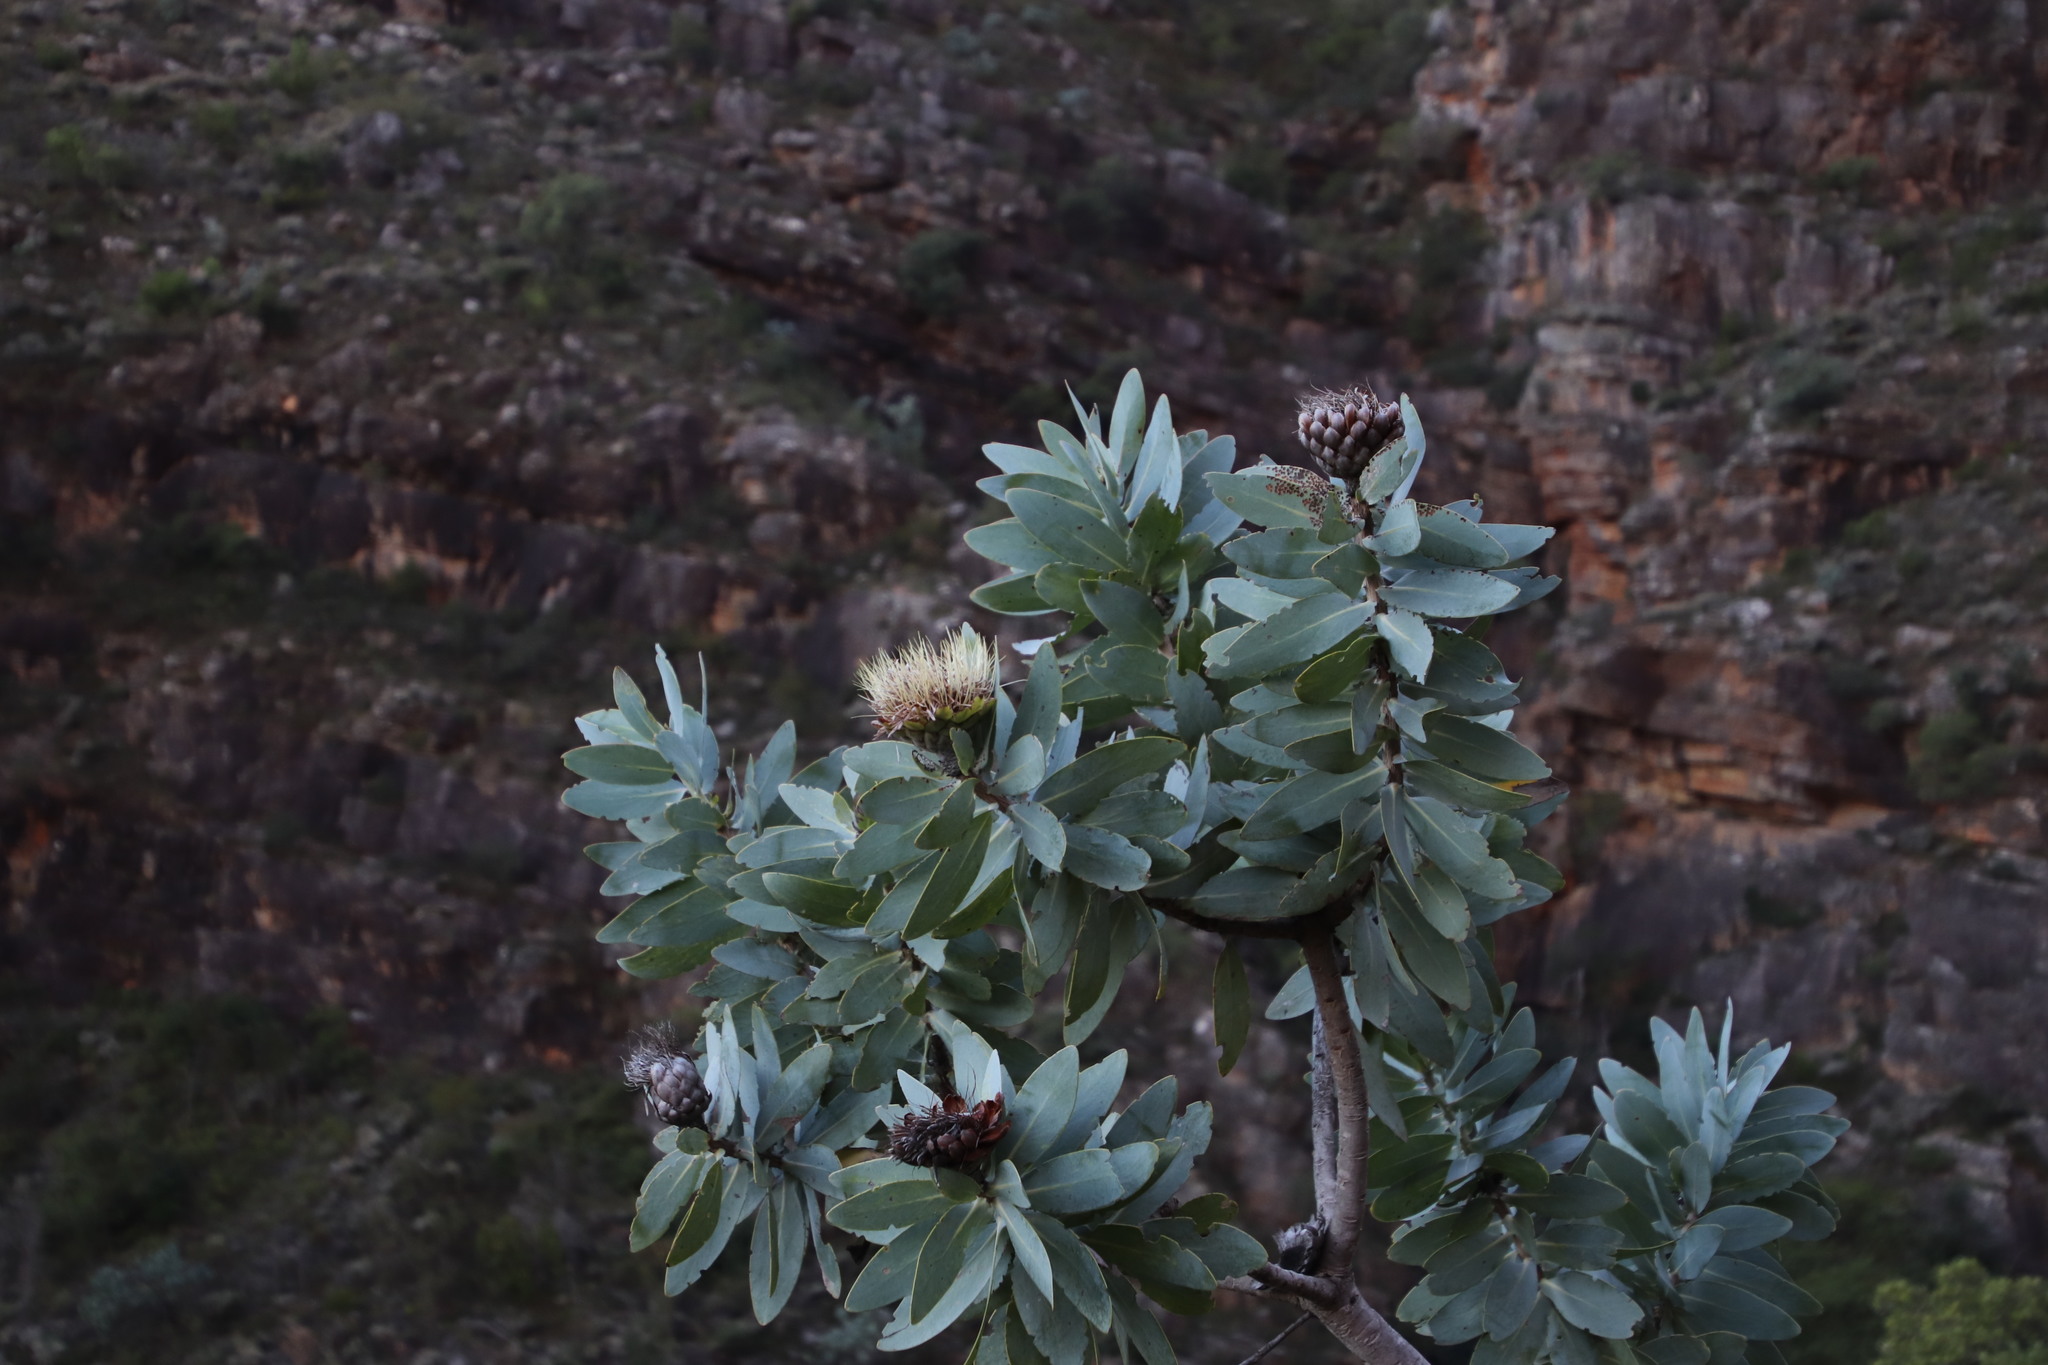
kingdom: Plantae
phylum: Tracheophyta
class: Magnoliopsida
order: Proteales
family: Proteaceae
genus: Protea
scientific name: Protea nitida
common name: Tree protea
